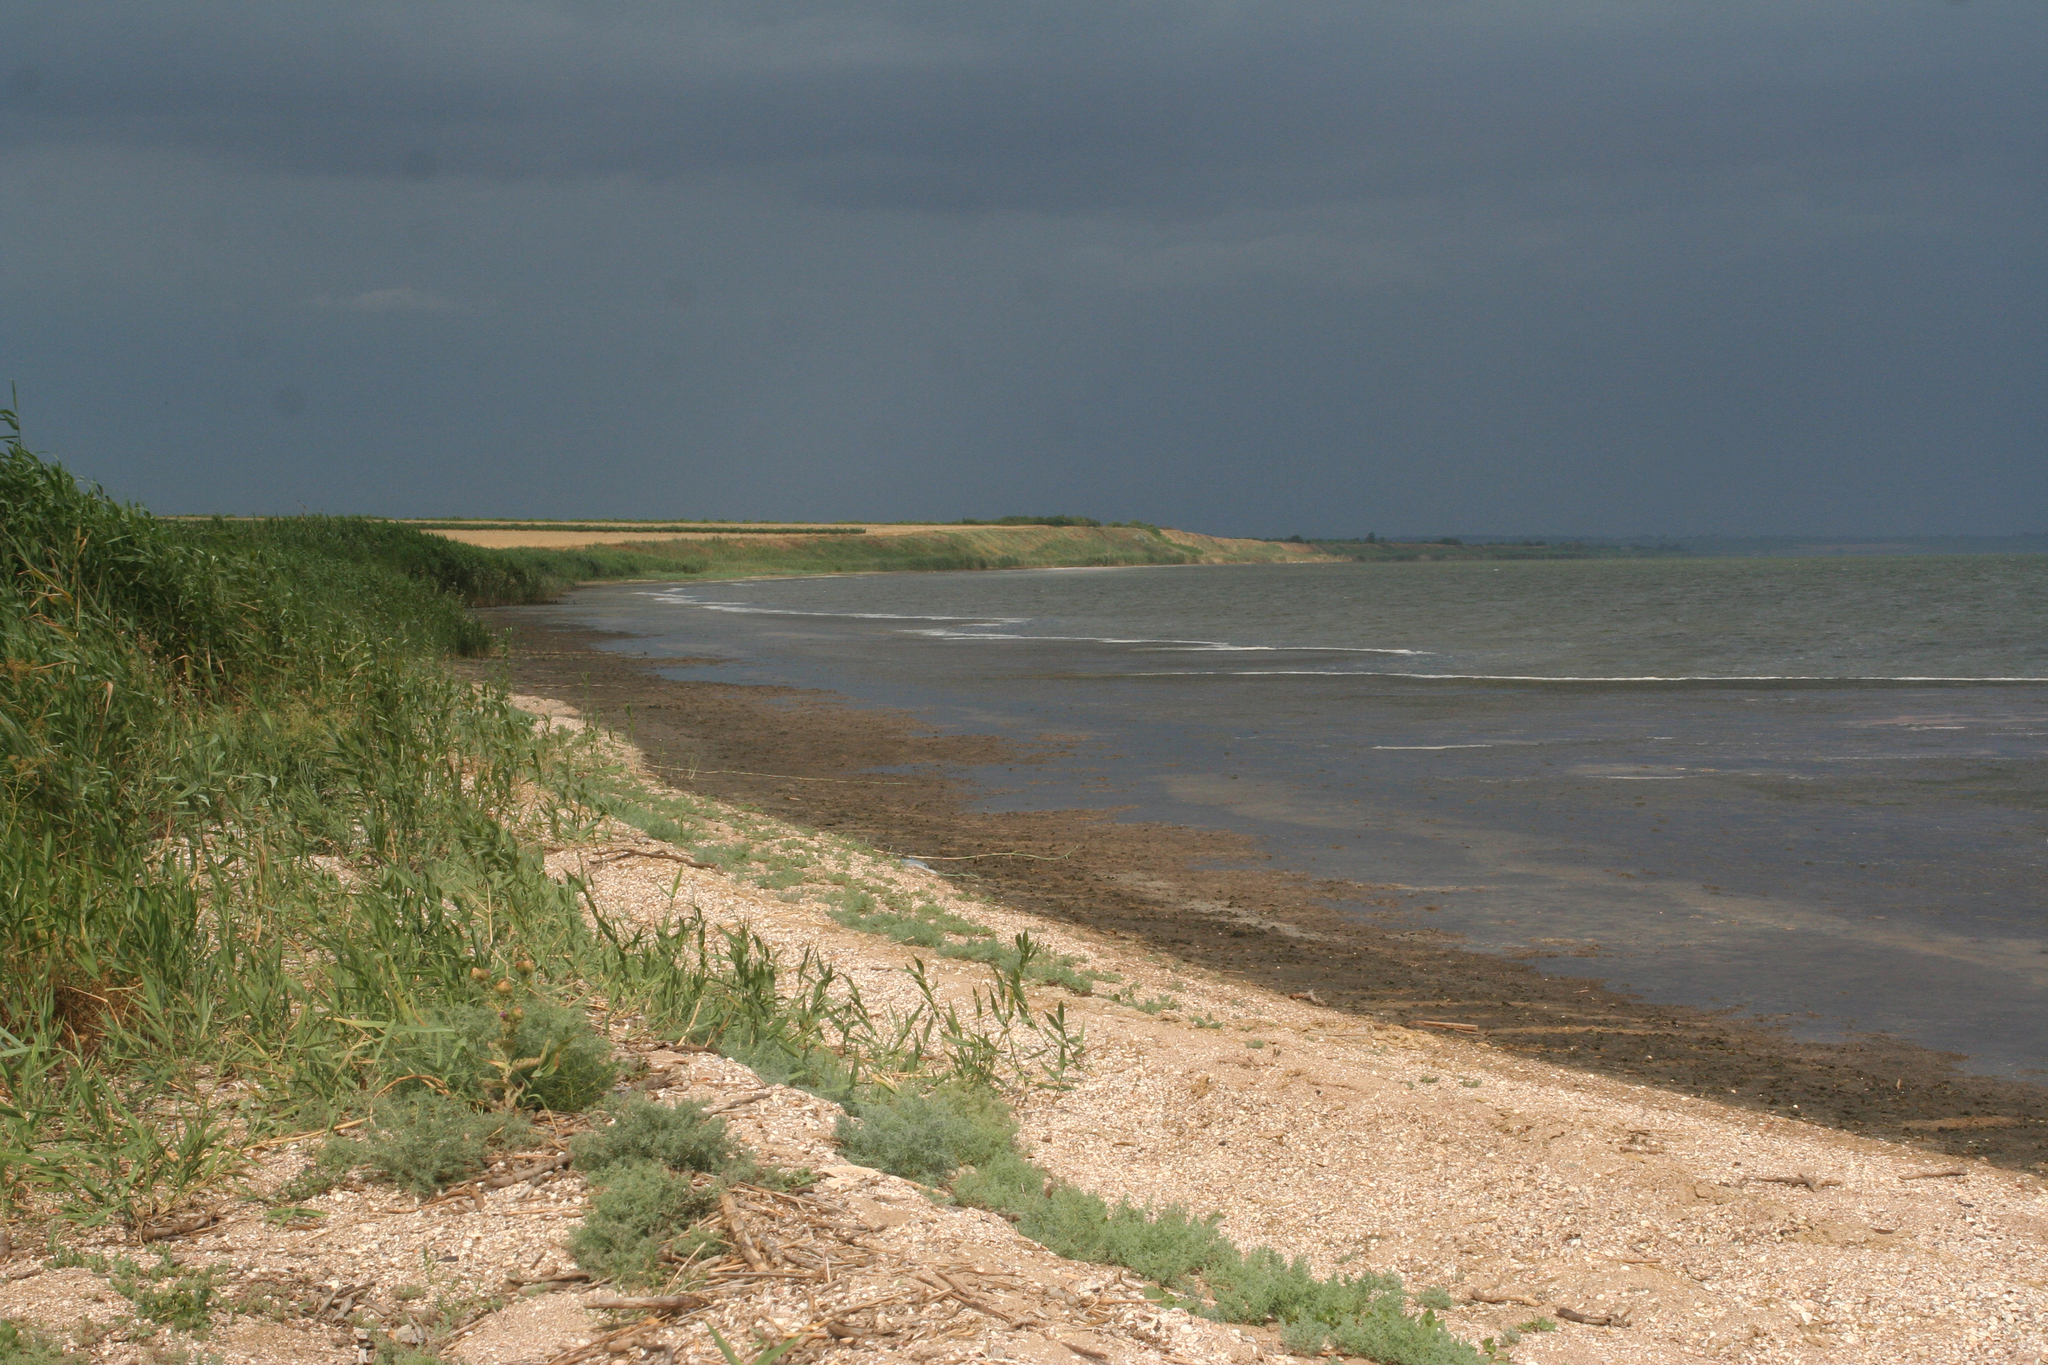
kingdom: Plantae
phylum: Tracheophyta
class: Liliopsida
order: Poales
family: Poaceae
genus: Phragmites
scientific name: Phragmites australis
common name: Common reed
